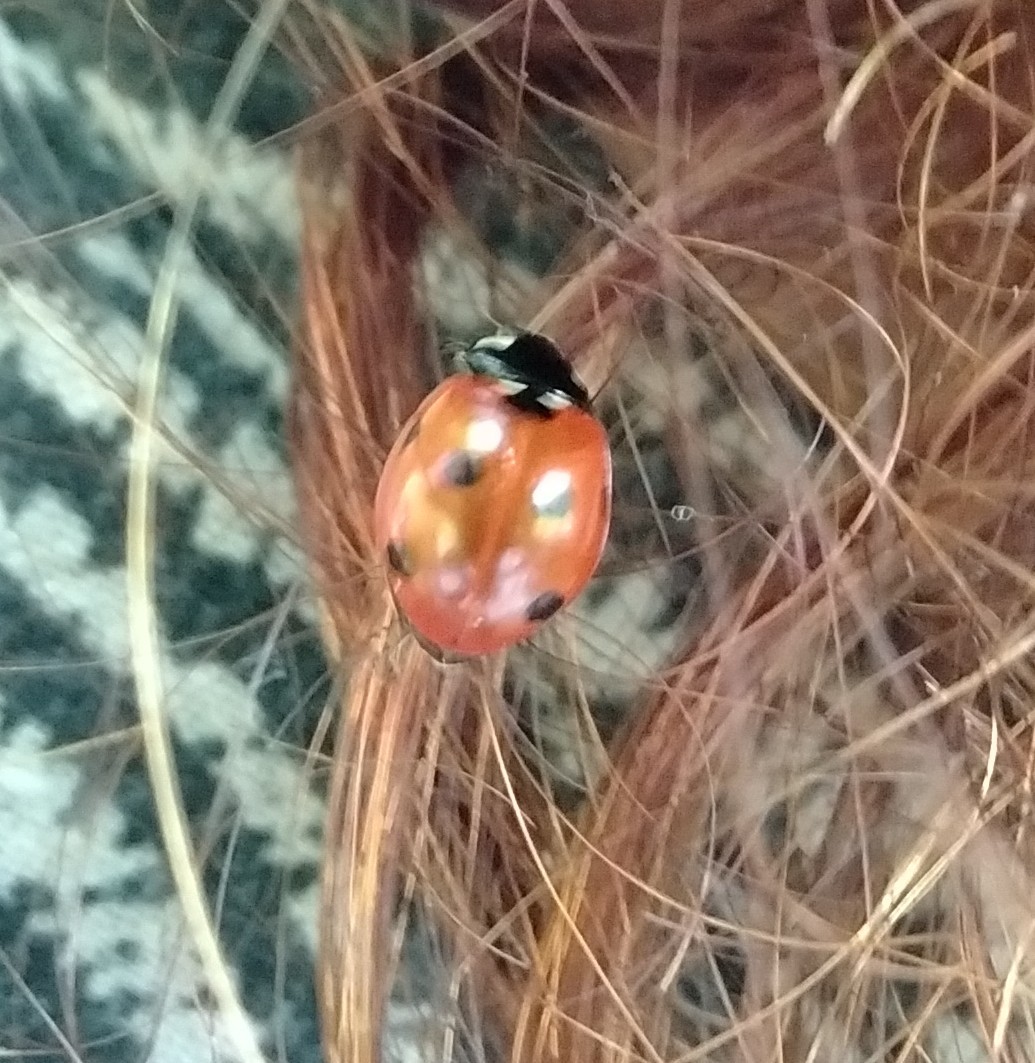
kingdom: Animalia
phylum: Arthropoda
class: Insecta
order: Coleoptera
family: Coccinellidae
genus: Coccinella
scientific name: Coccinella septempunctata
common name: Sevenspotted lady beetle
